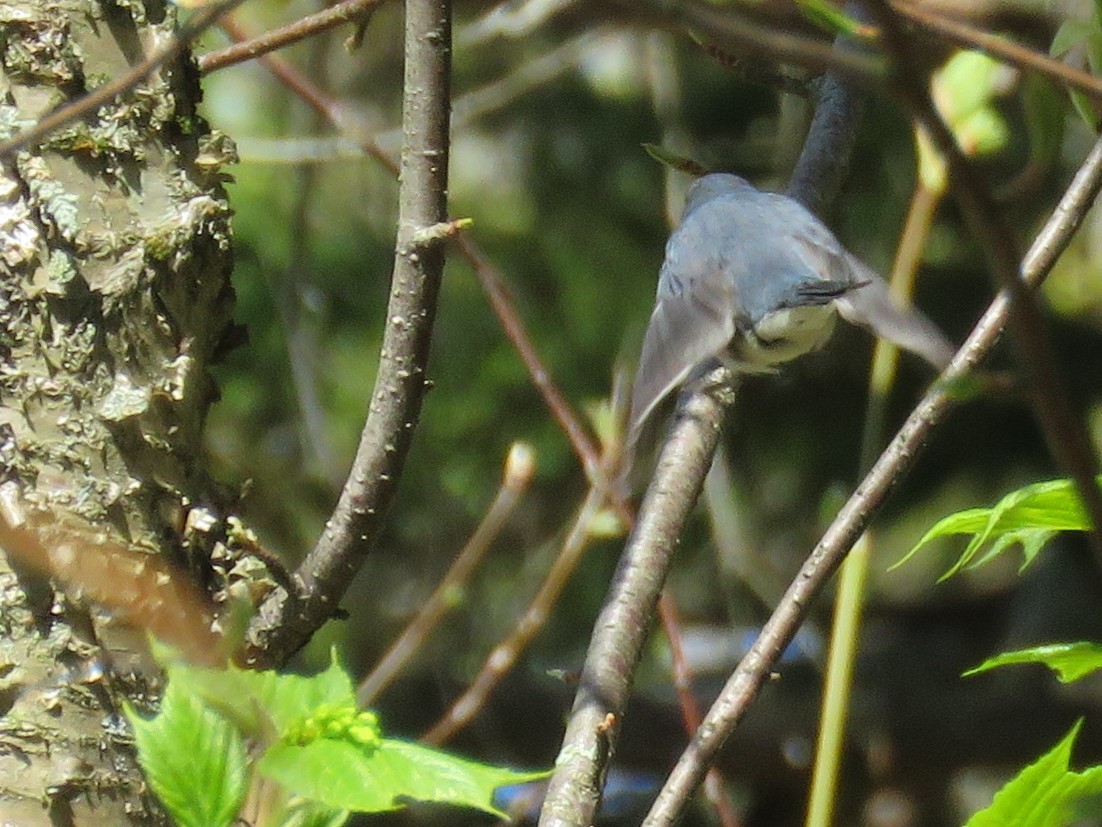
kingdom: Animalia
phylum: Chordata
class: Aves
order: Passeriformes
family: Parulidae
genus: Setophaga
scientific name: Setophaga caerulescens
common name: Black-throated blue warbler
